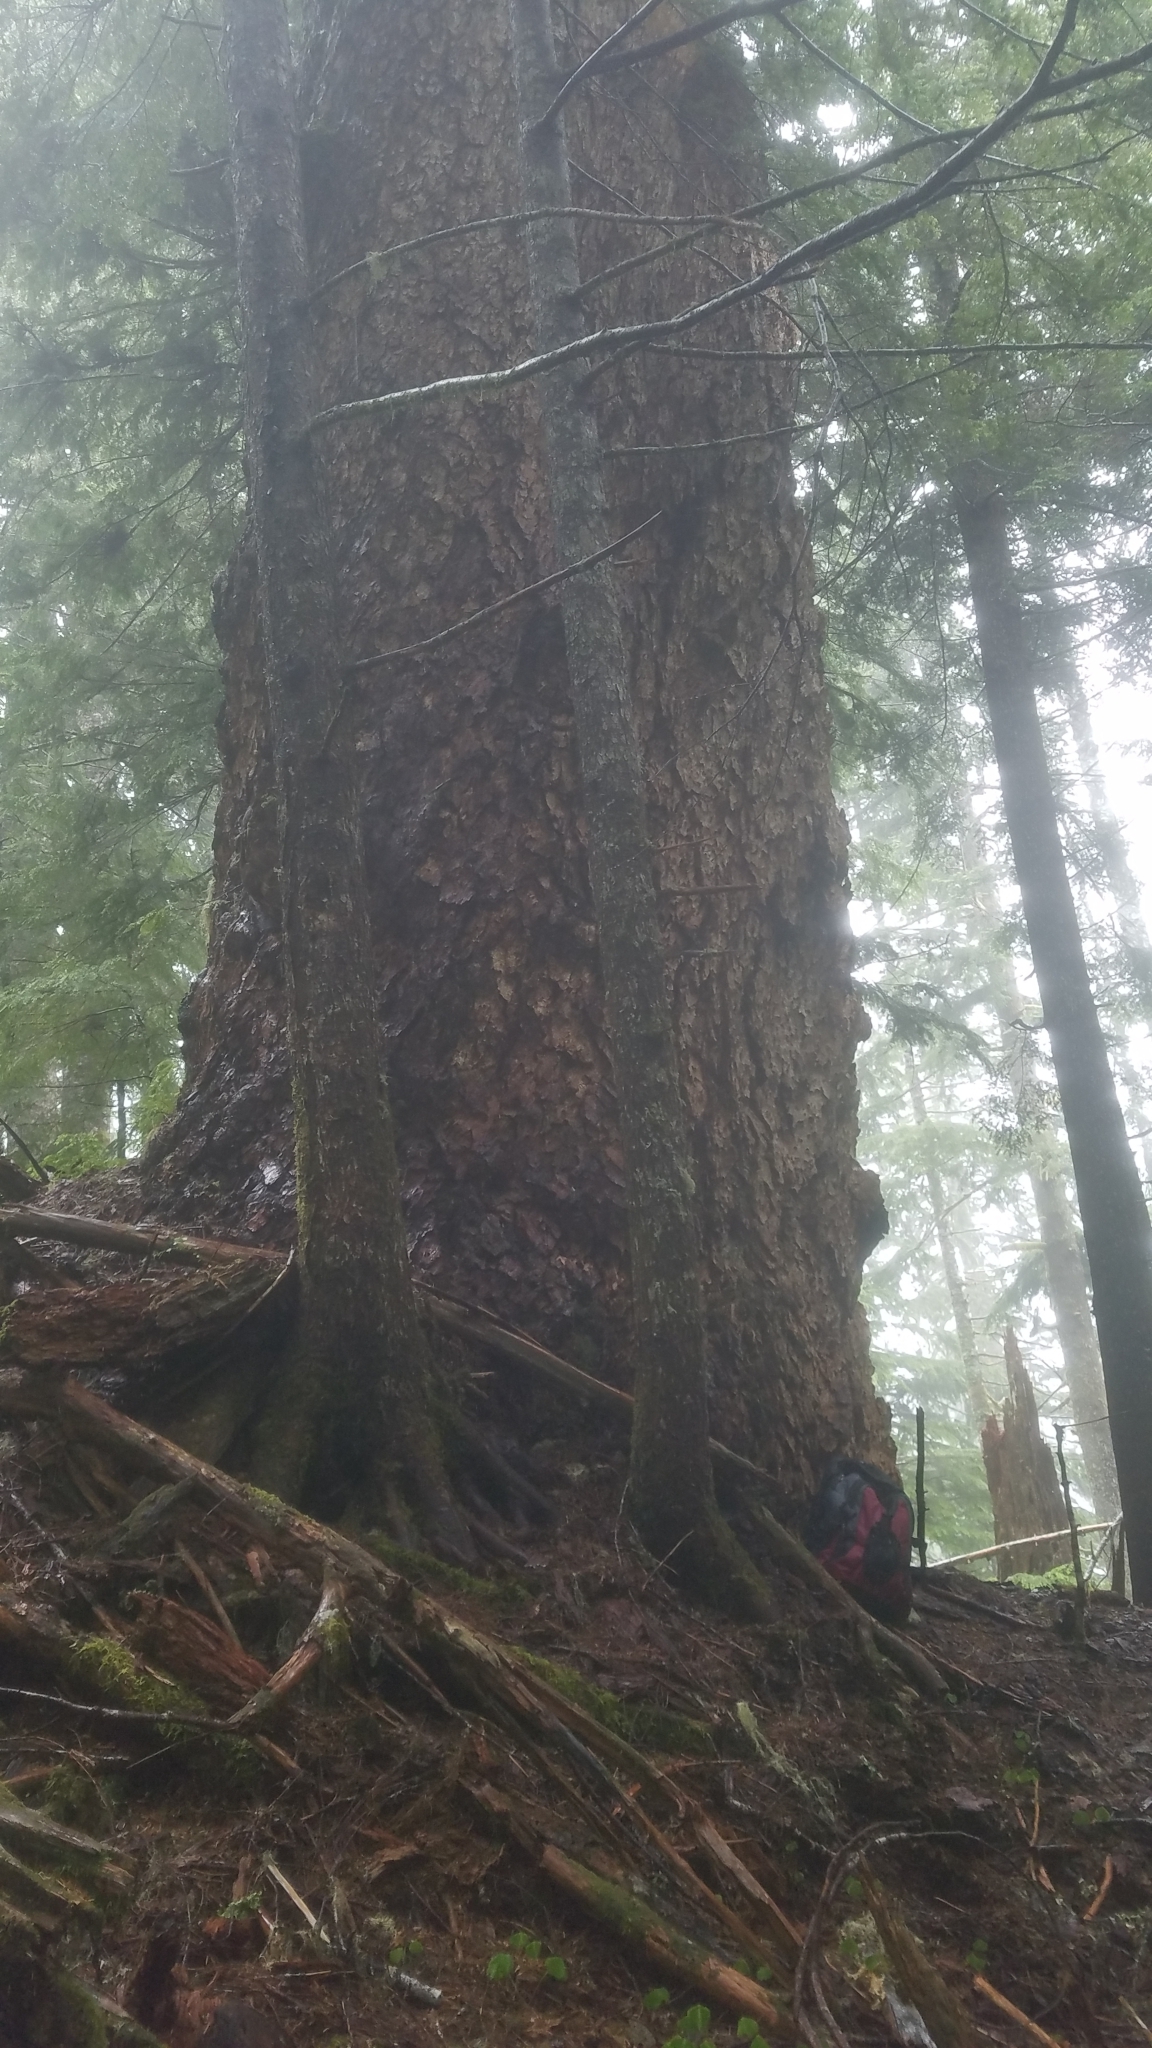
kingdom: Plantae
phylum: Tracheophyta
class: Pinopsida
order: Pinales
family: Pinaceae
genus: Pseudotsuga
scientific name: Pseudotsuga menziesii
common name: Douglas fir
